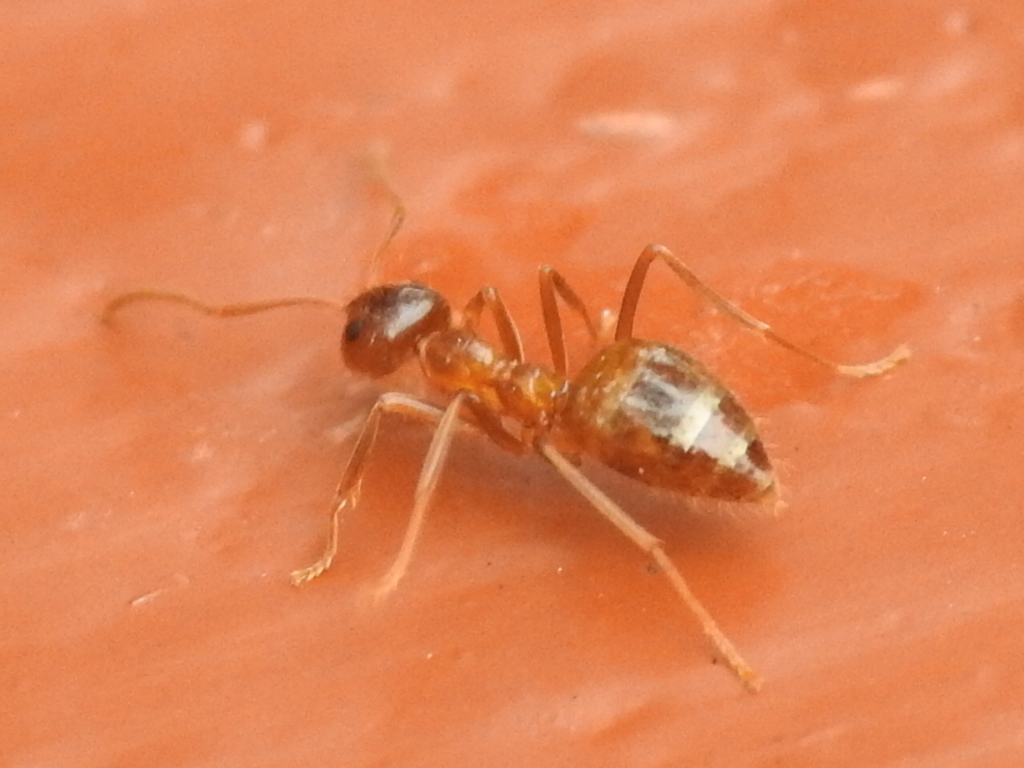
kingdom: Animalia
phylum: Arthropoda
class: Insecta
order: Hymenoptera
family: Formicidae
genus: Prenolepis
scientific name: Prenolepis imparis
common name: Small honey ant
